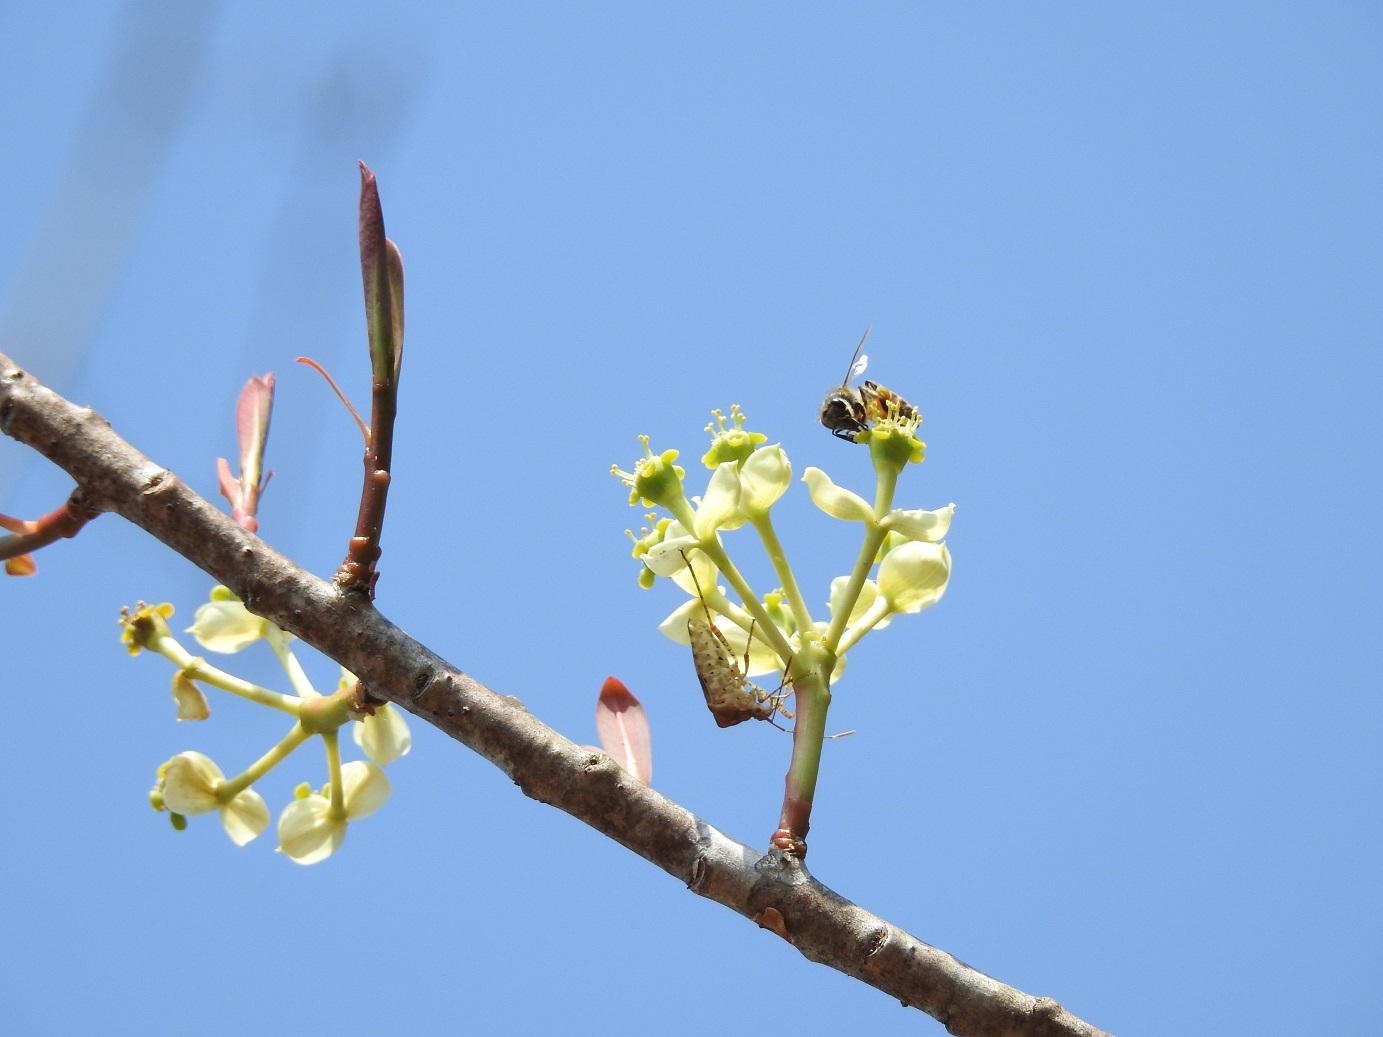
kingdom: Plantae
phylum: Tracheophyta
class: Magnoliopsida
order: Malpighiales
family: Euphorbiaceae
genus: Euphorbia
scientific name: Euphorbia lundelliana
